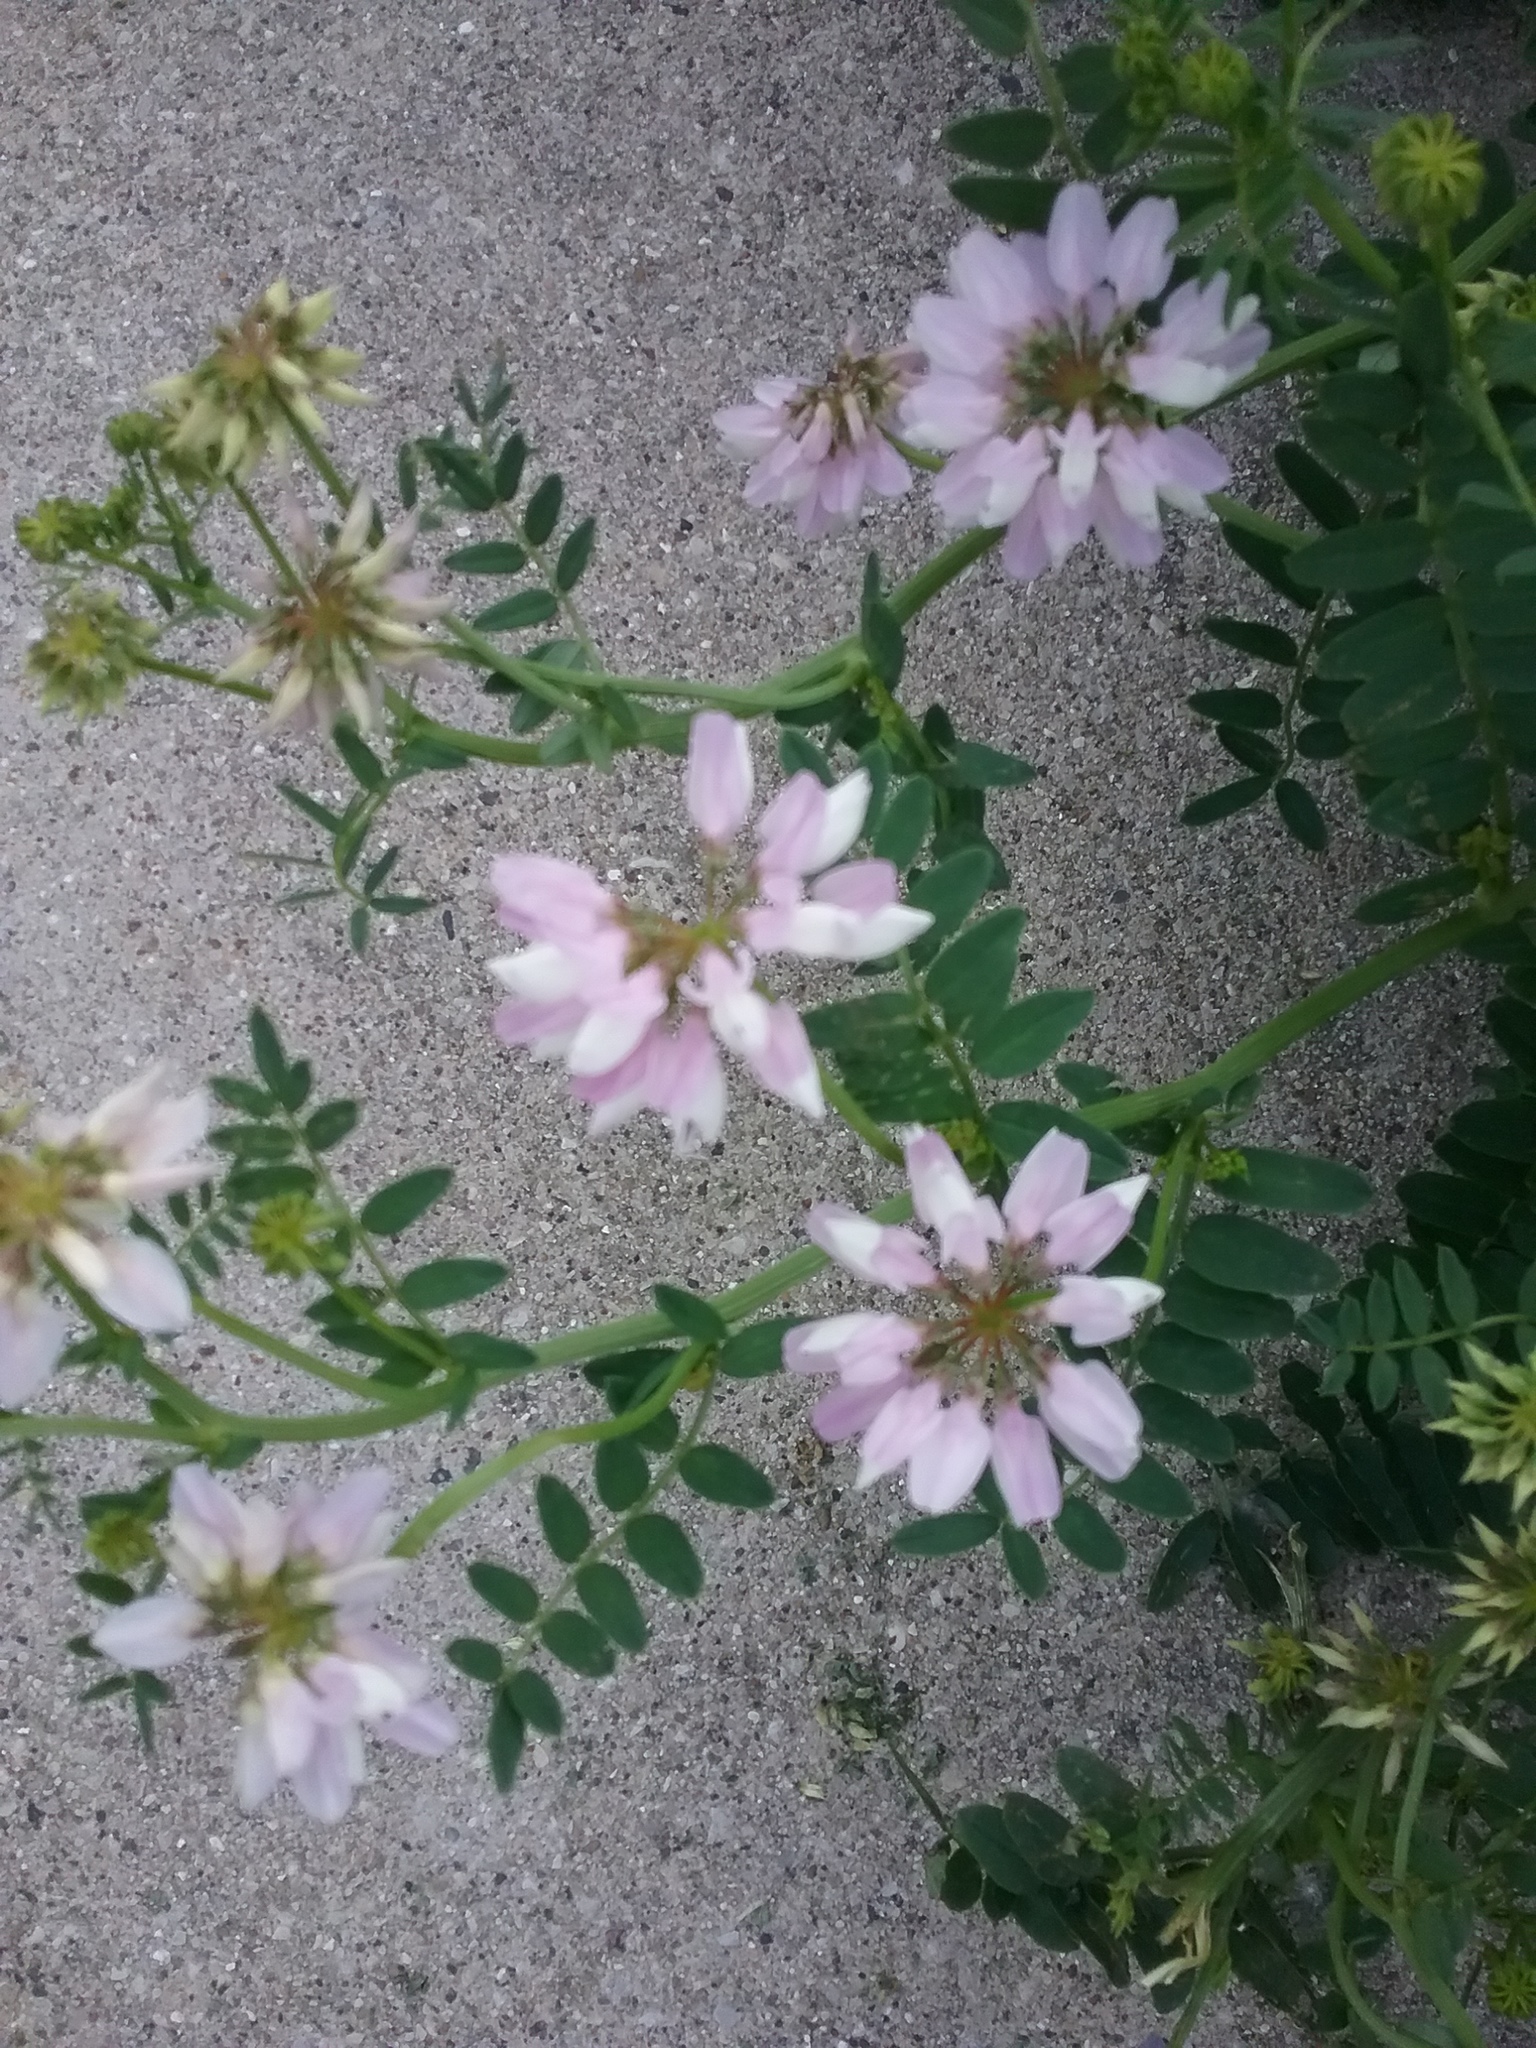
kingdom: Plantae
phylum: Tracheophyta
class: Magnoliopsida
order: Fabales
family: Fabaceae
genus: Coronilla
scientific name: Coronilla varia
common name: Crownvetch
